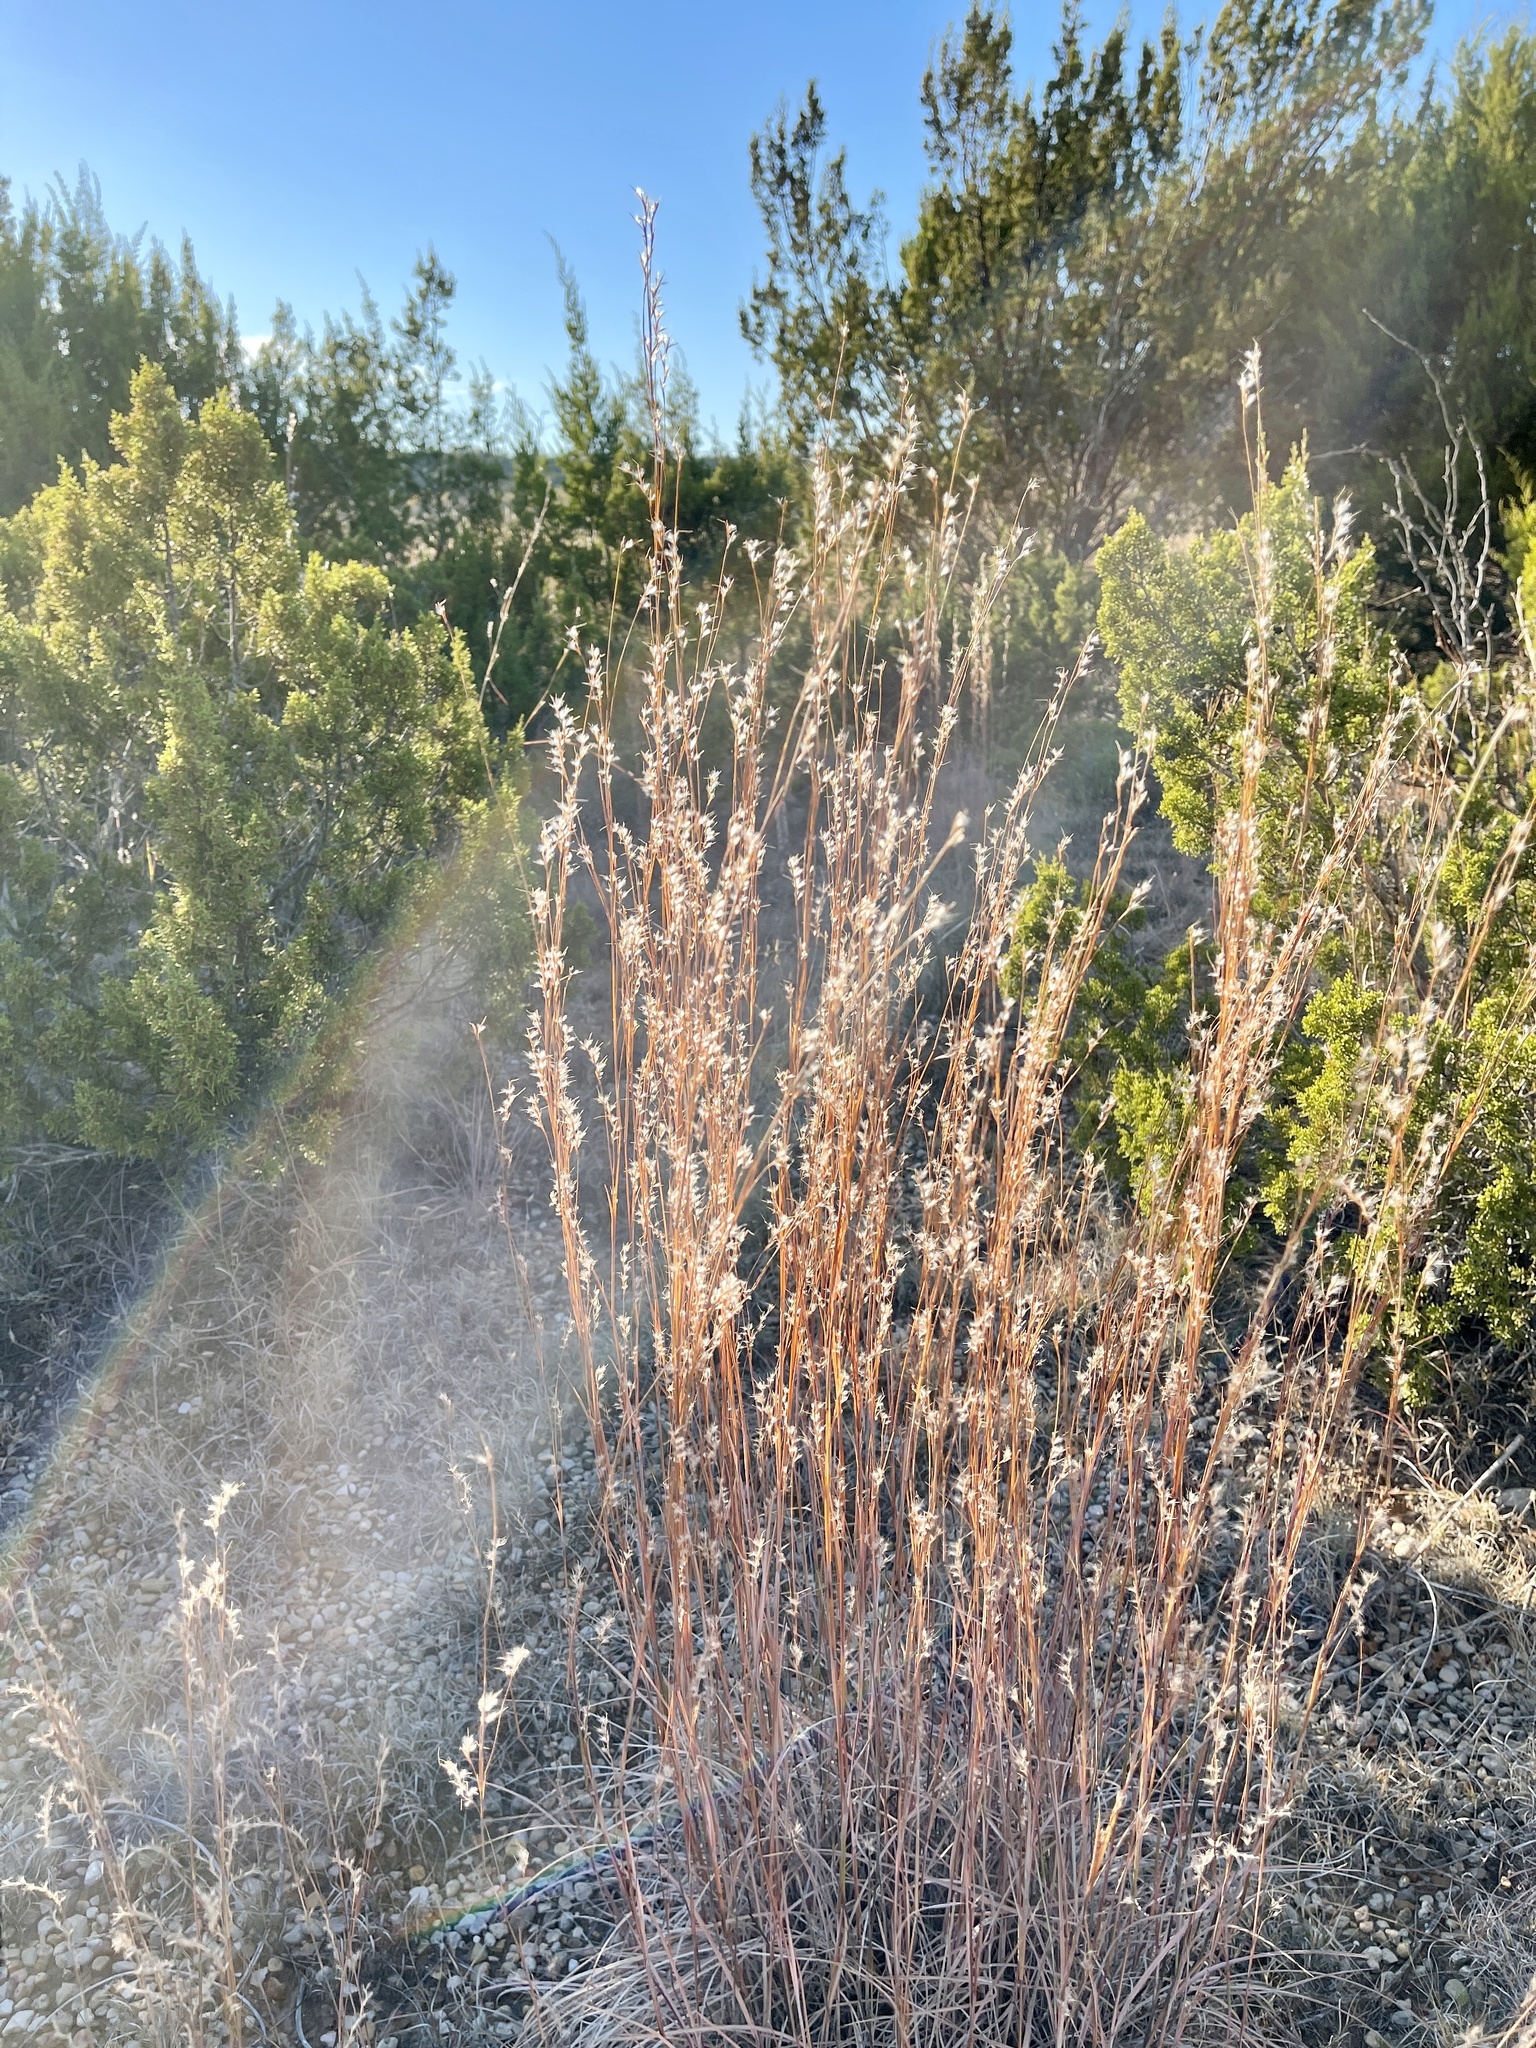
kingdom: Plantae
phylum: Tracheophyta
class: Liliopsida
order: Poales
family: Poaceae
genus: Schizachyrium
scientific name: Schizachyrium scoparium
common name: Little bluestem
